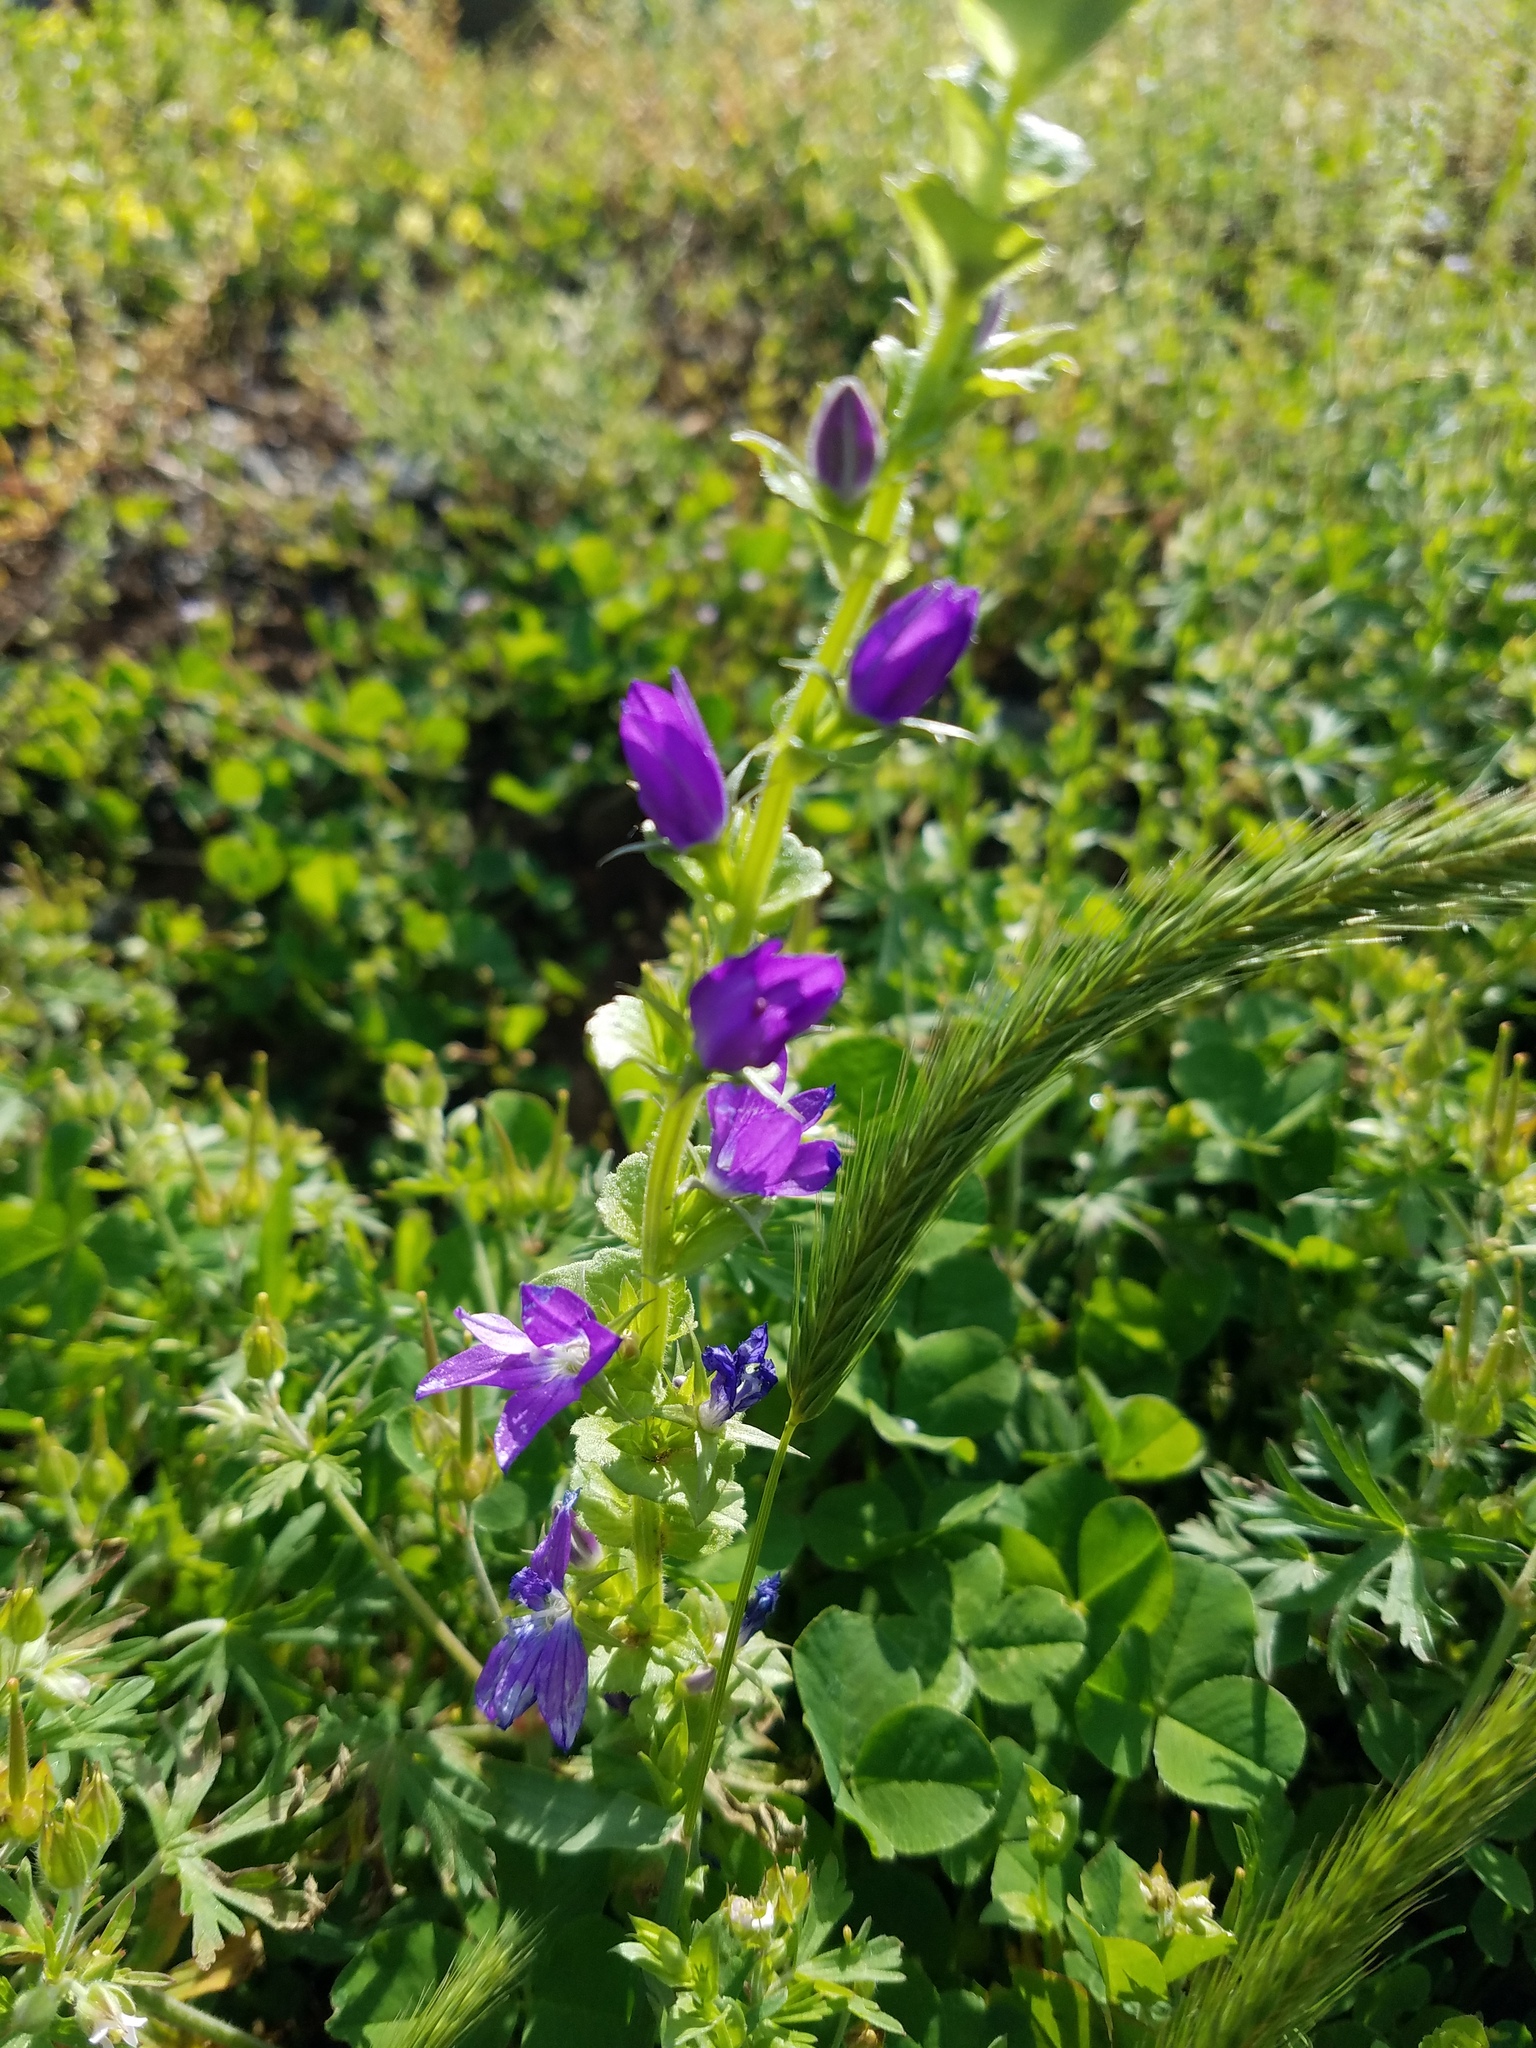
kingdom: Plantae
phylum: Tracheophyta
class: Magnoliopsida
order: Asterales
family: Campanulaceae
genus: Triodanis
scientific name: Triodanis perfoliata
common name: Clasping venus' looking-glass
